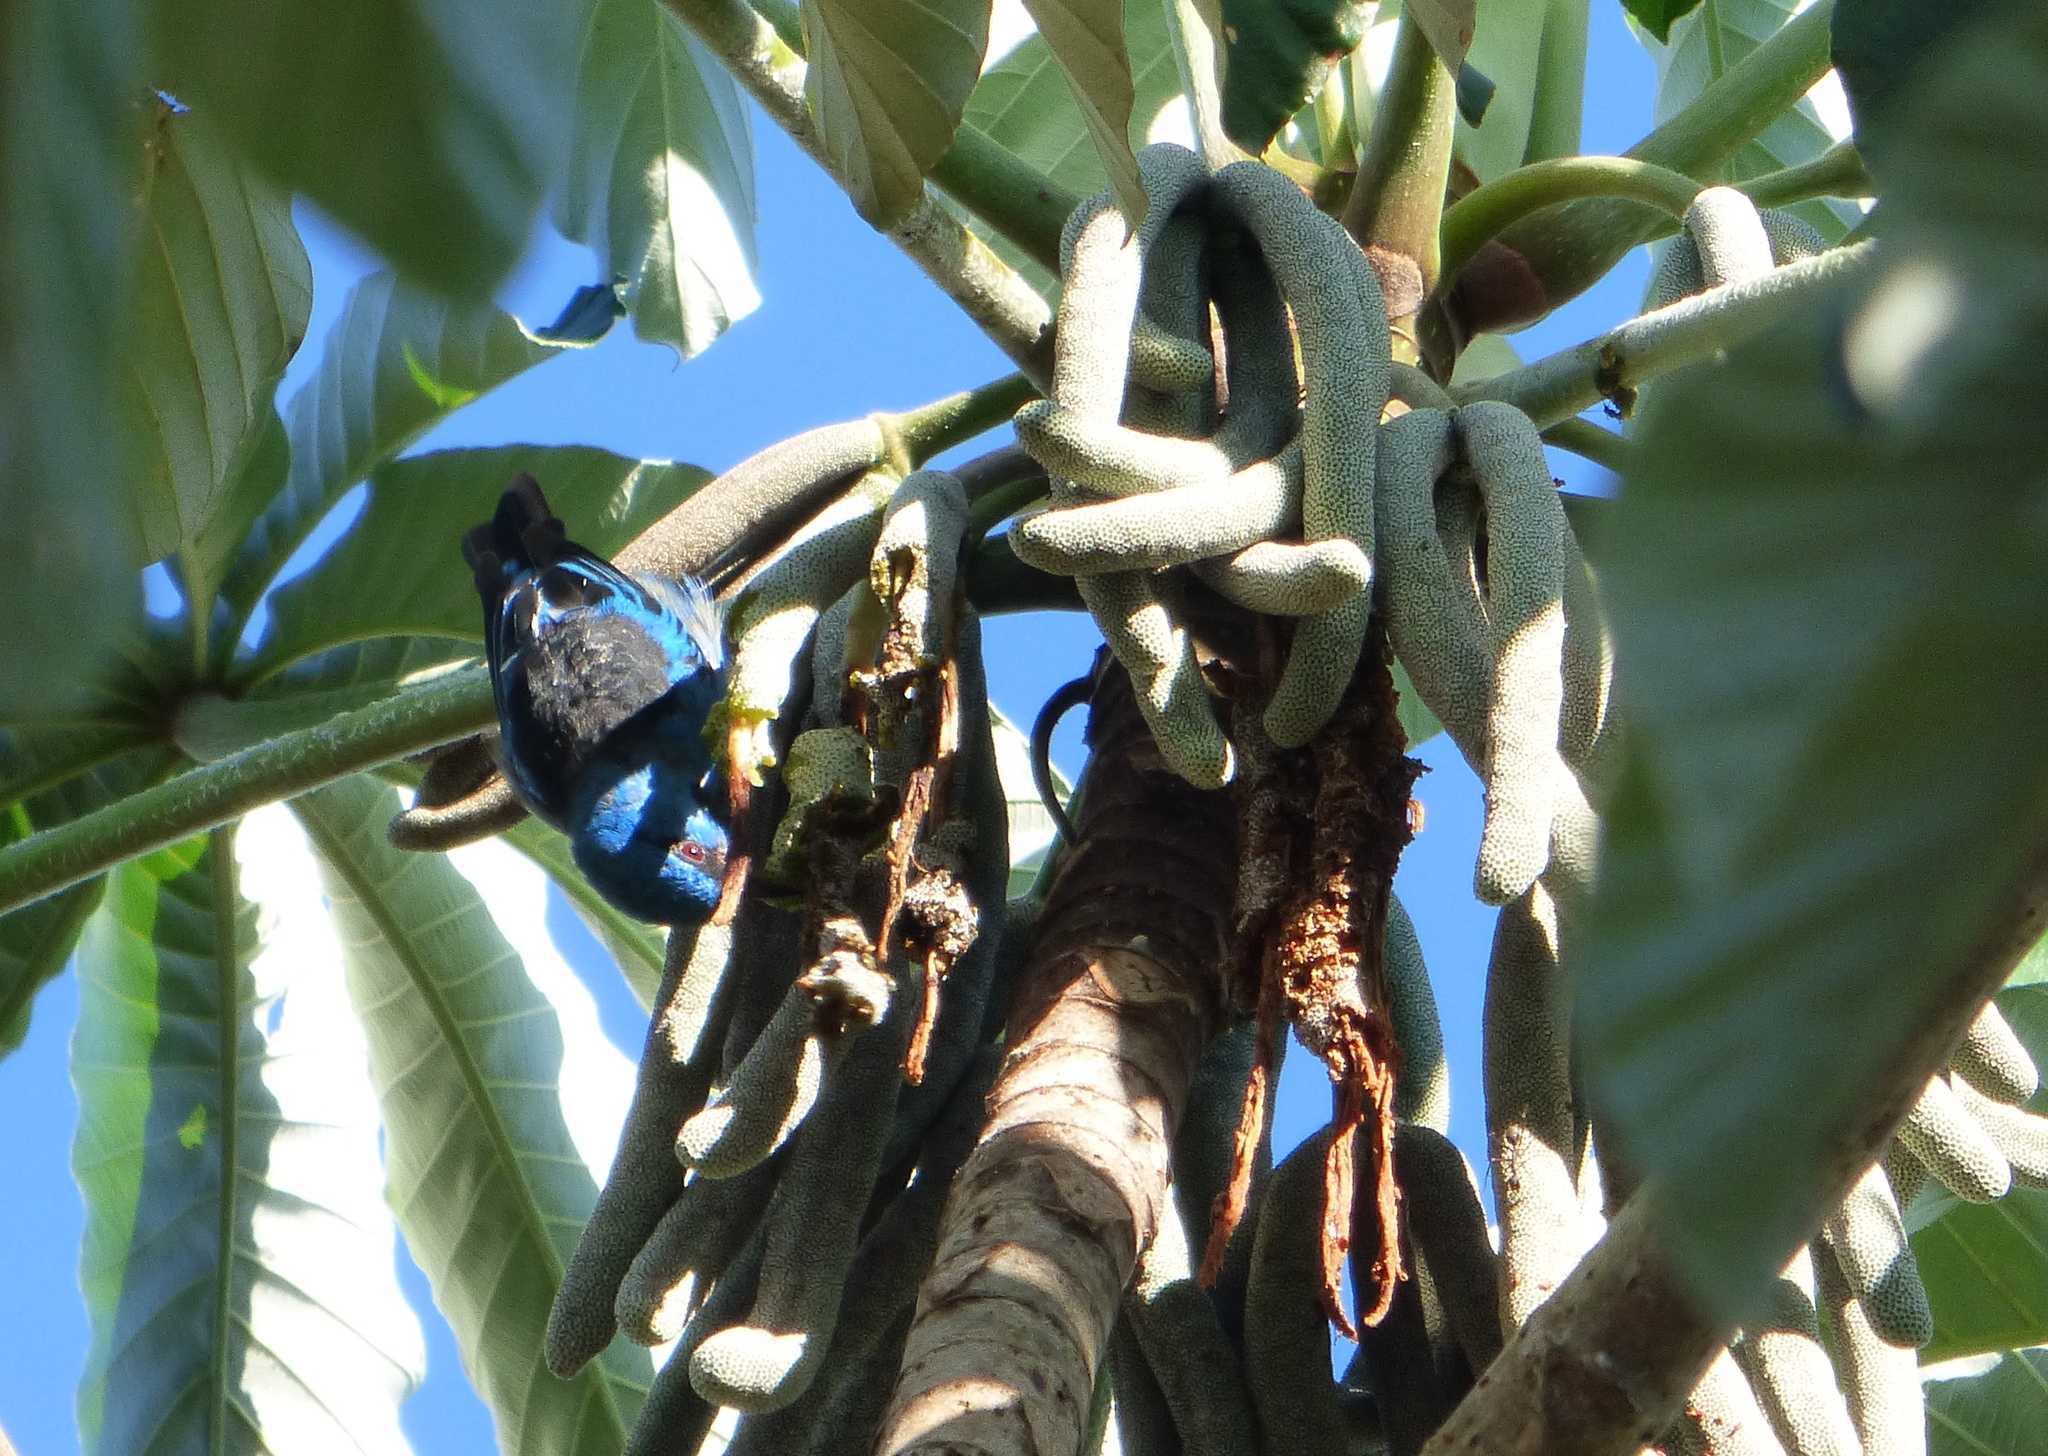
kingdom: Animalia
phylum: Chordata
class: Aves
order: Passeriformes
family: Thraupidae
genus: Dacnis
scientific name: Dacnis cayana
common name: Blue dacnis
